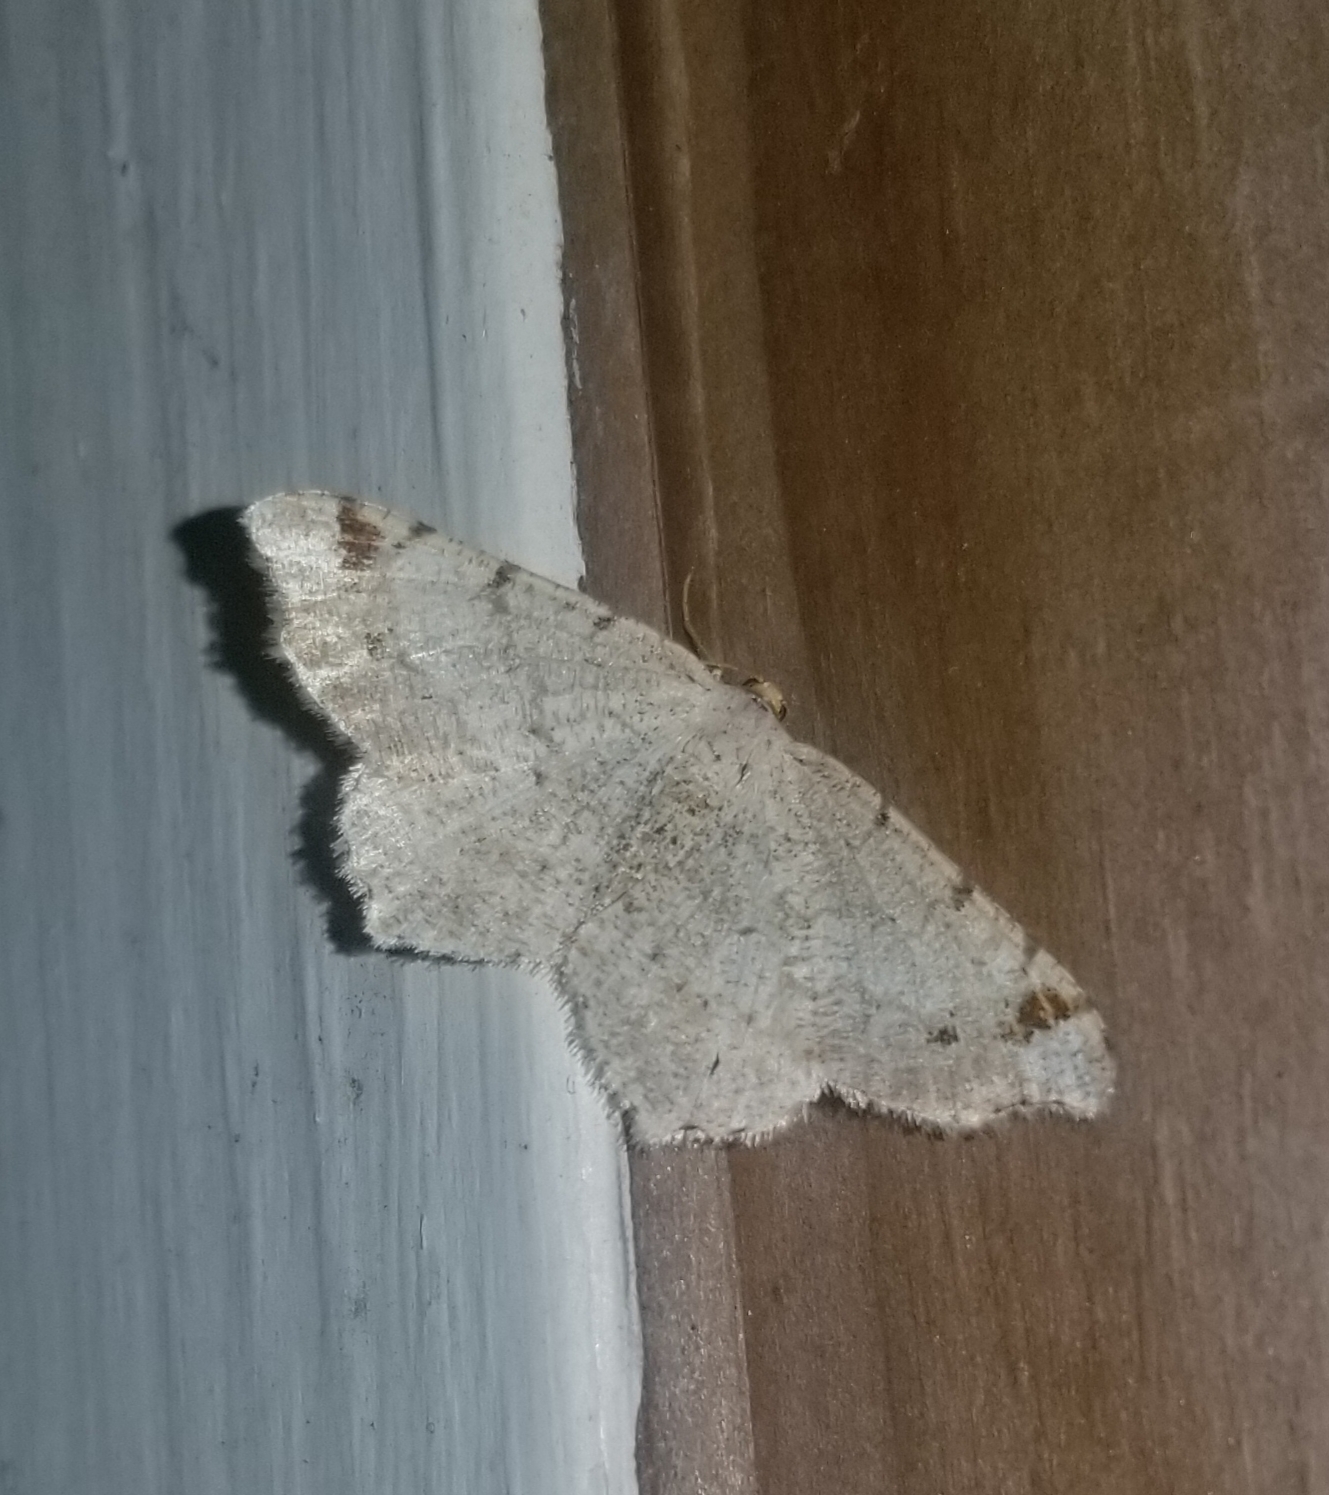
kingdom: Animalia
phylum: Arthropoda
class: Insecta
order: Lepidoptera
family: Geometridae
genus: Macaria
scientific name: Macaria bisignata
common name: Red-headed inchworm
